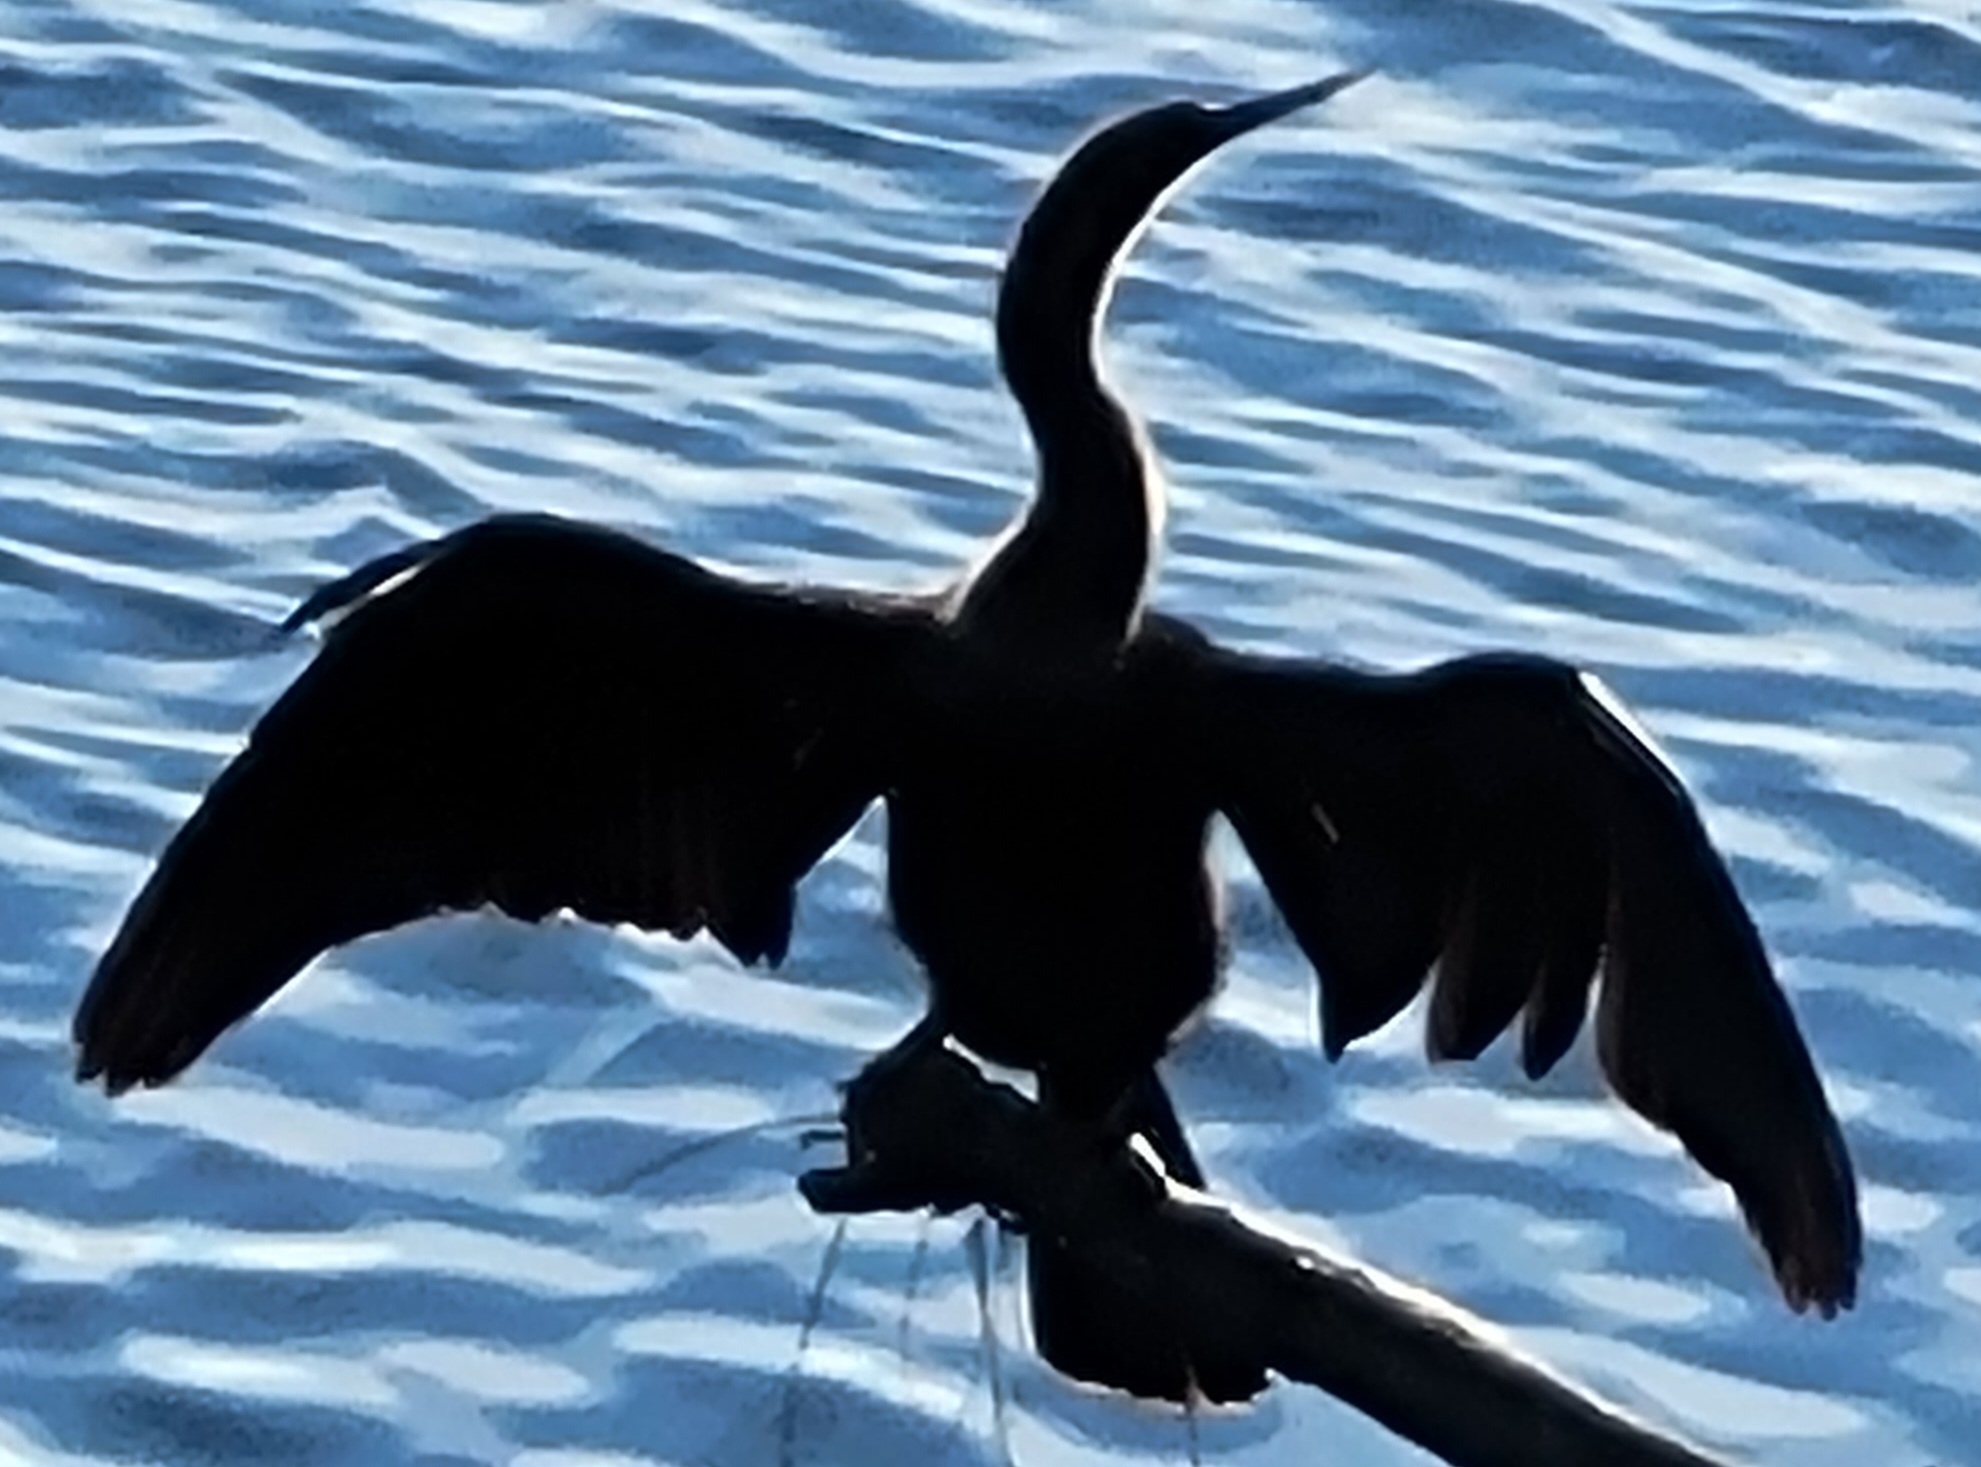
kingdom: Animalia
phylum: Chordata
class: Aves
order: Suliformes
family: Anhingidae
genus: Anhinga
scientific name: Anhinga anhinga
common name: Anhinga
